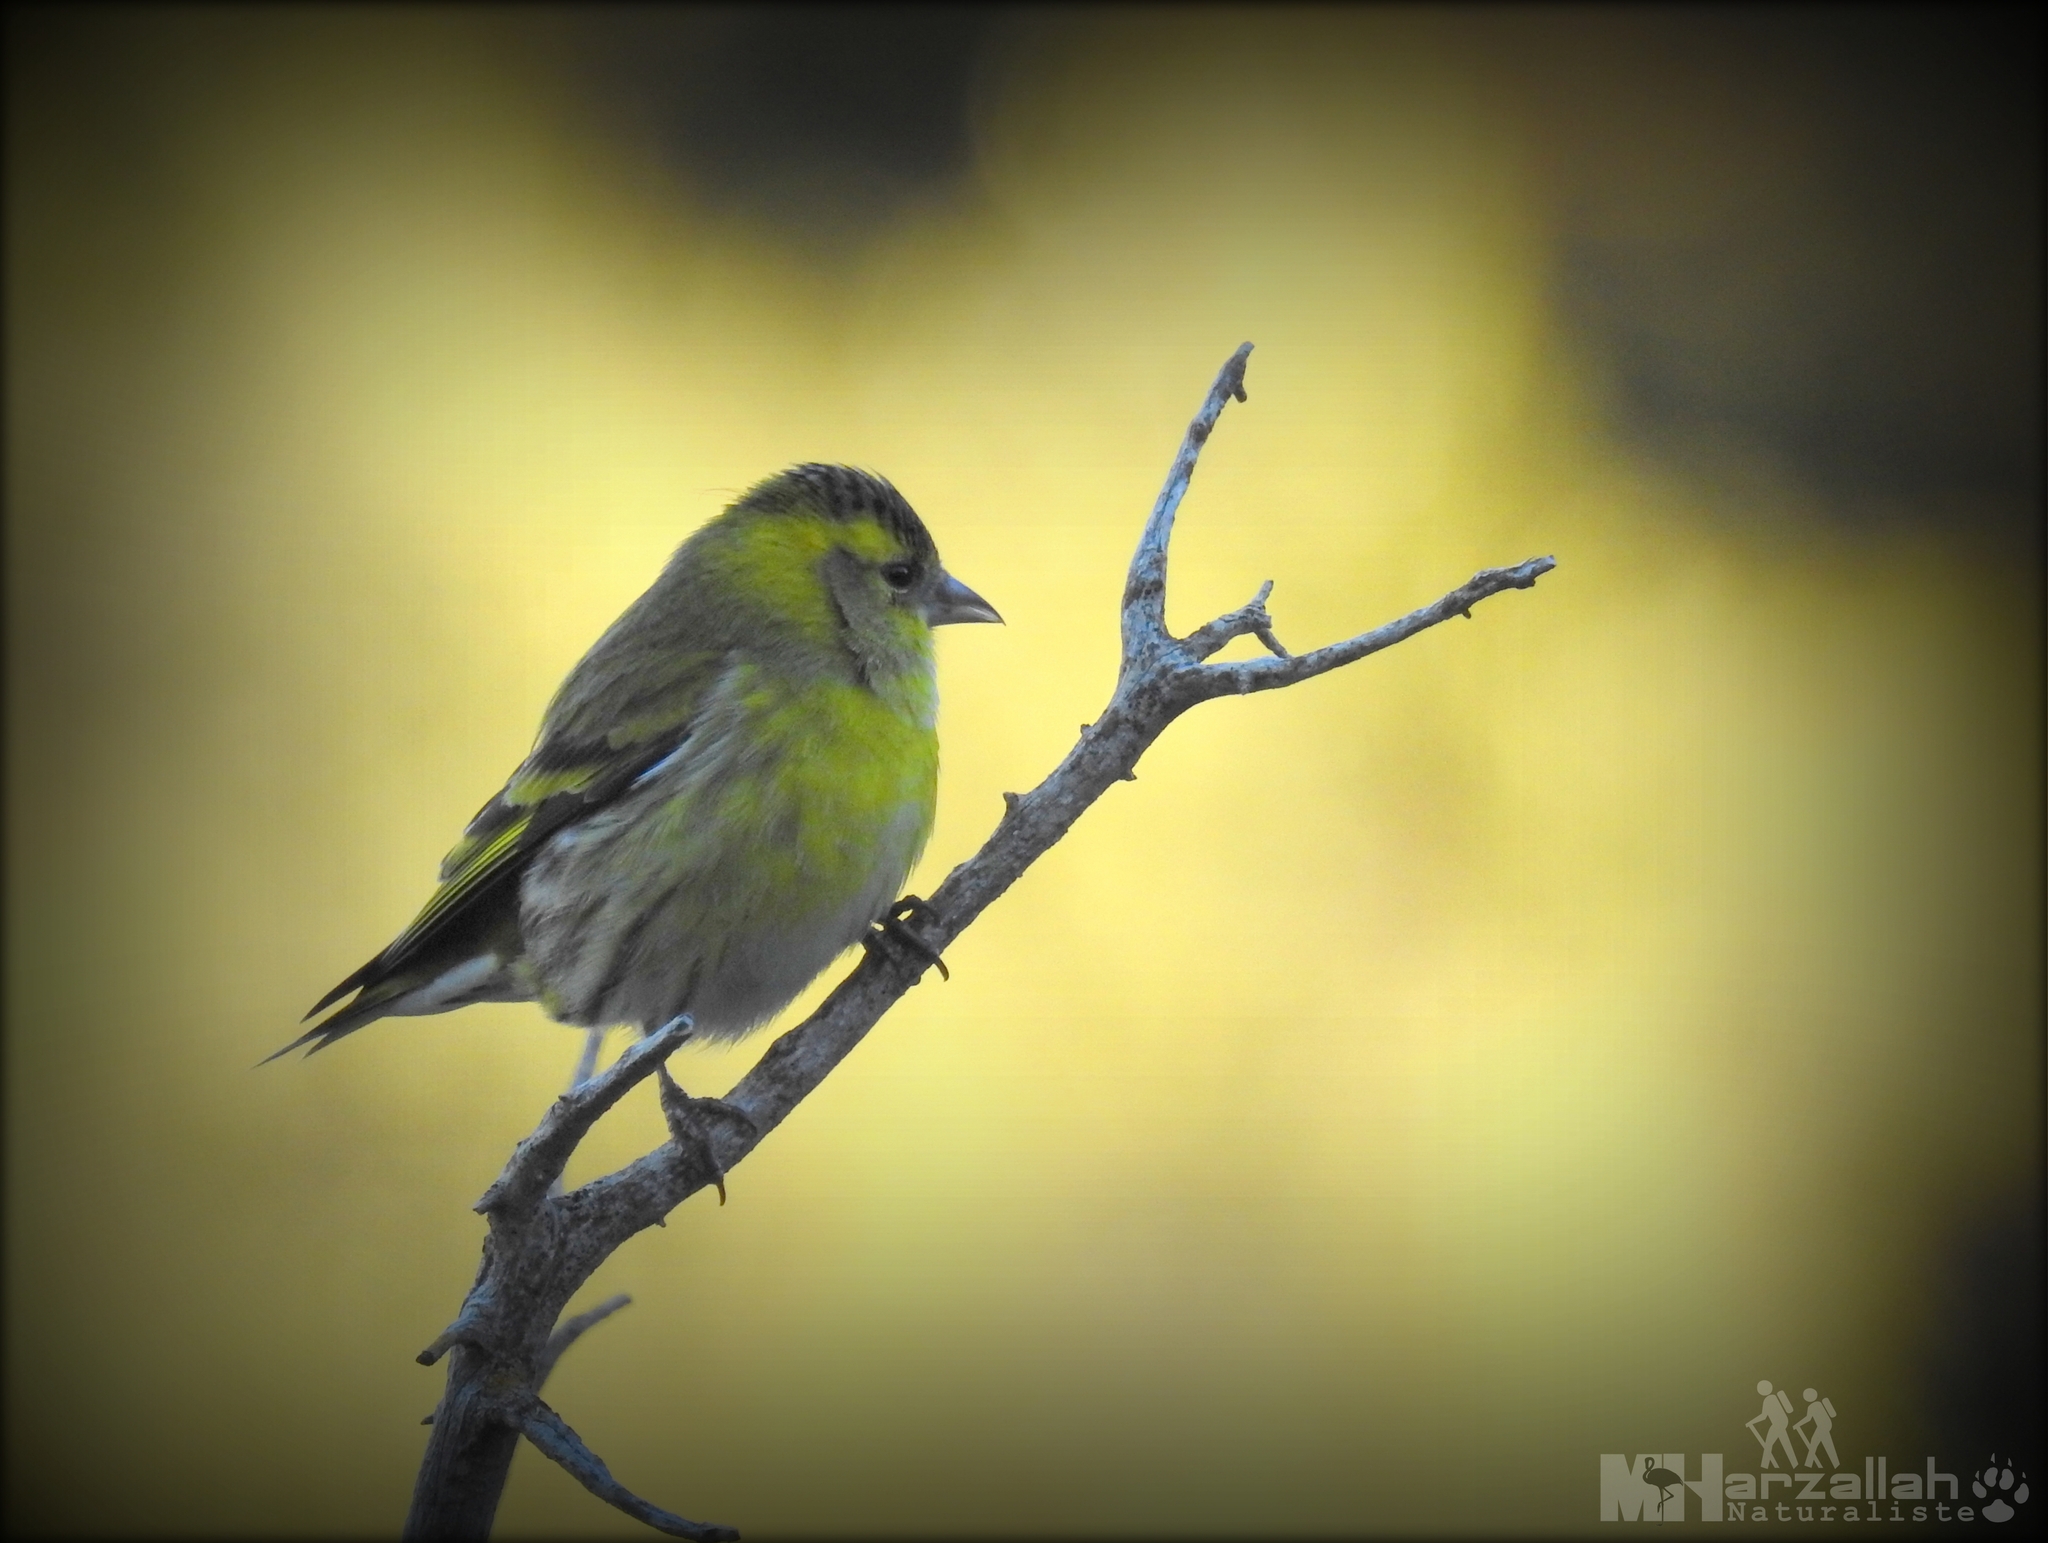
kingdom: Animalia
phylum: Chordata
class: Aves
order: Passeriformes
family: Fringillidae
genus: Spinus
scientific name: Spinus spinus
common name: Eurasian siskin
